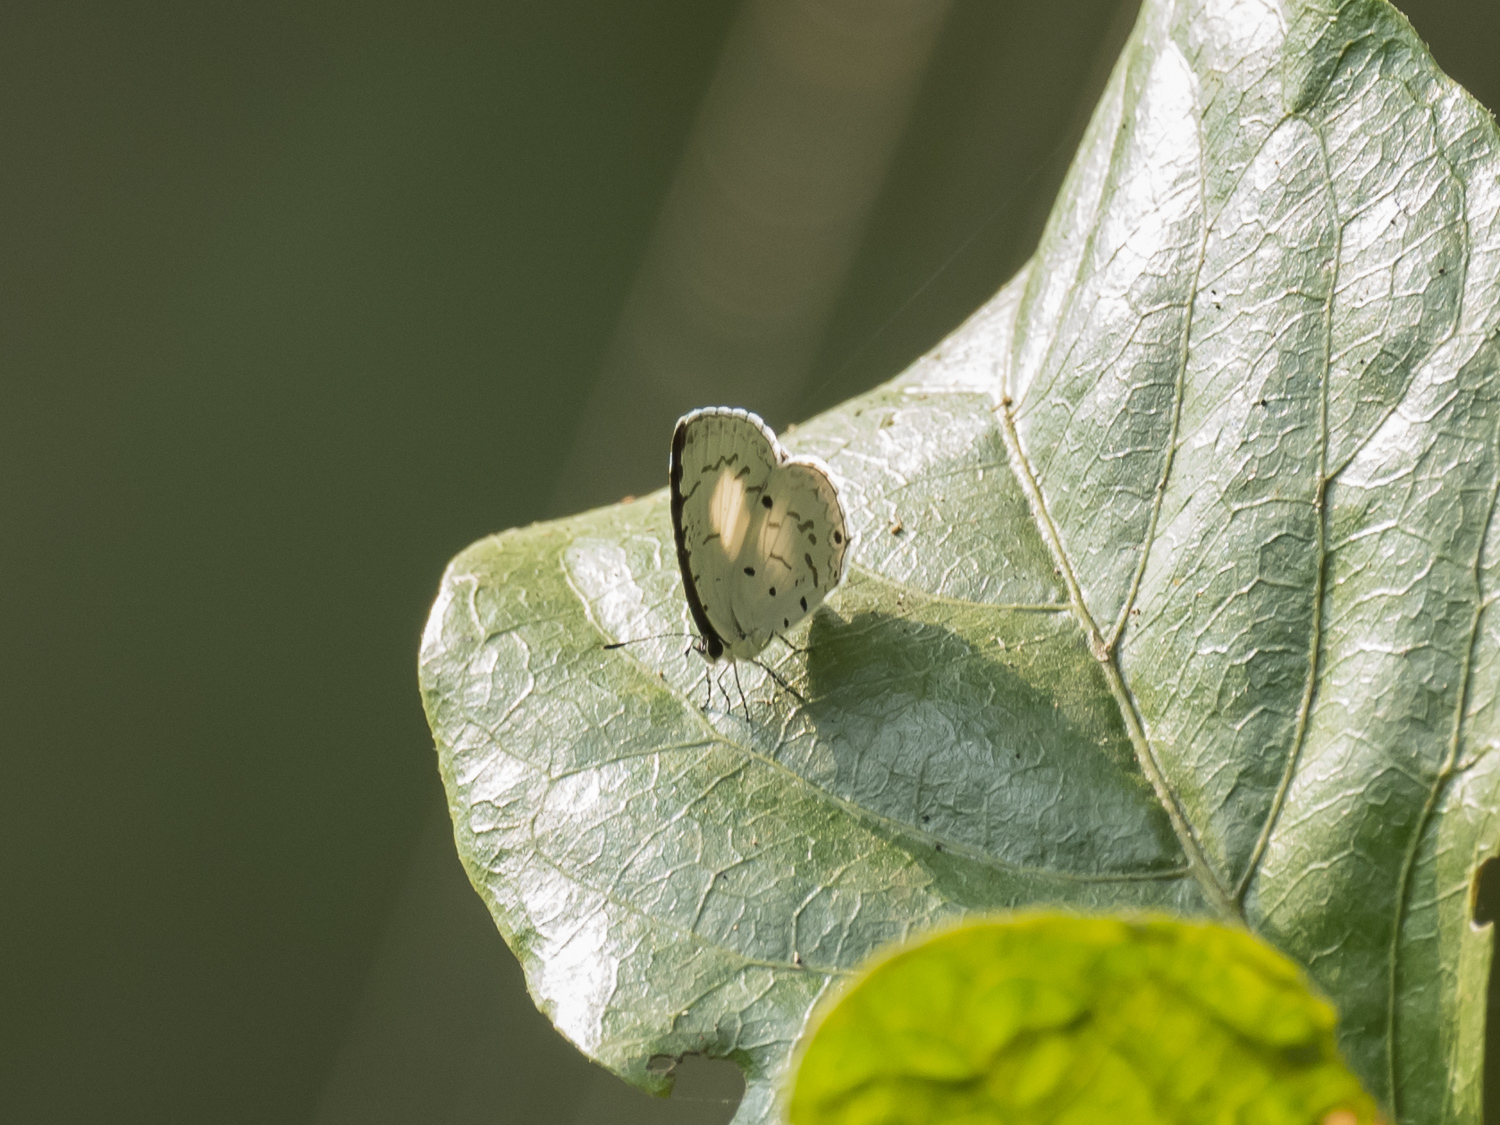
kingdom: Animalia
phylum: Arthropoda
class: Insecta
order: Lepidoptera
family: Lycaenidae
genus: Megisba
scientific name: Megisba malaya
